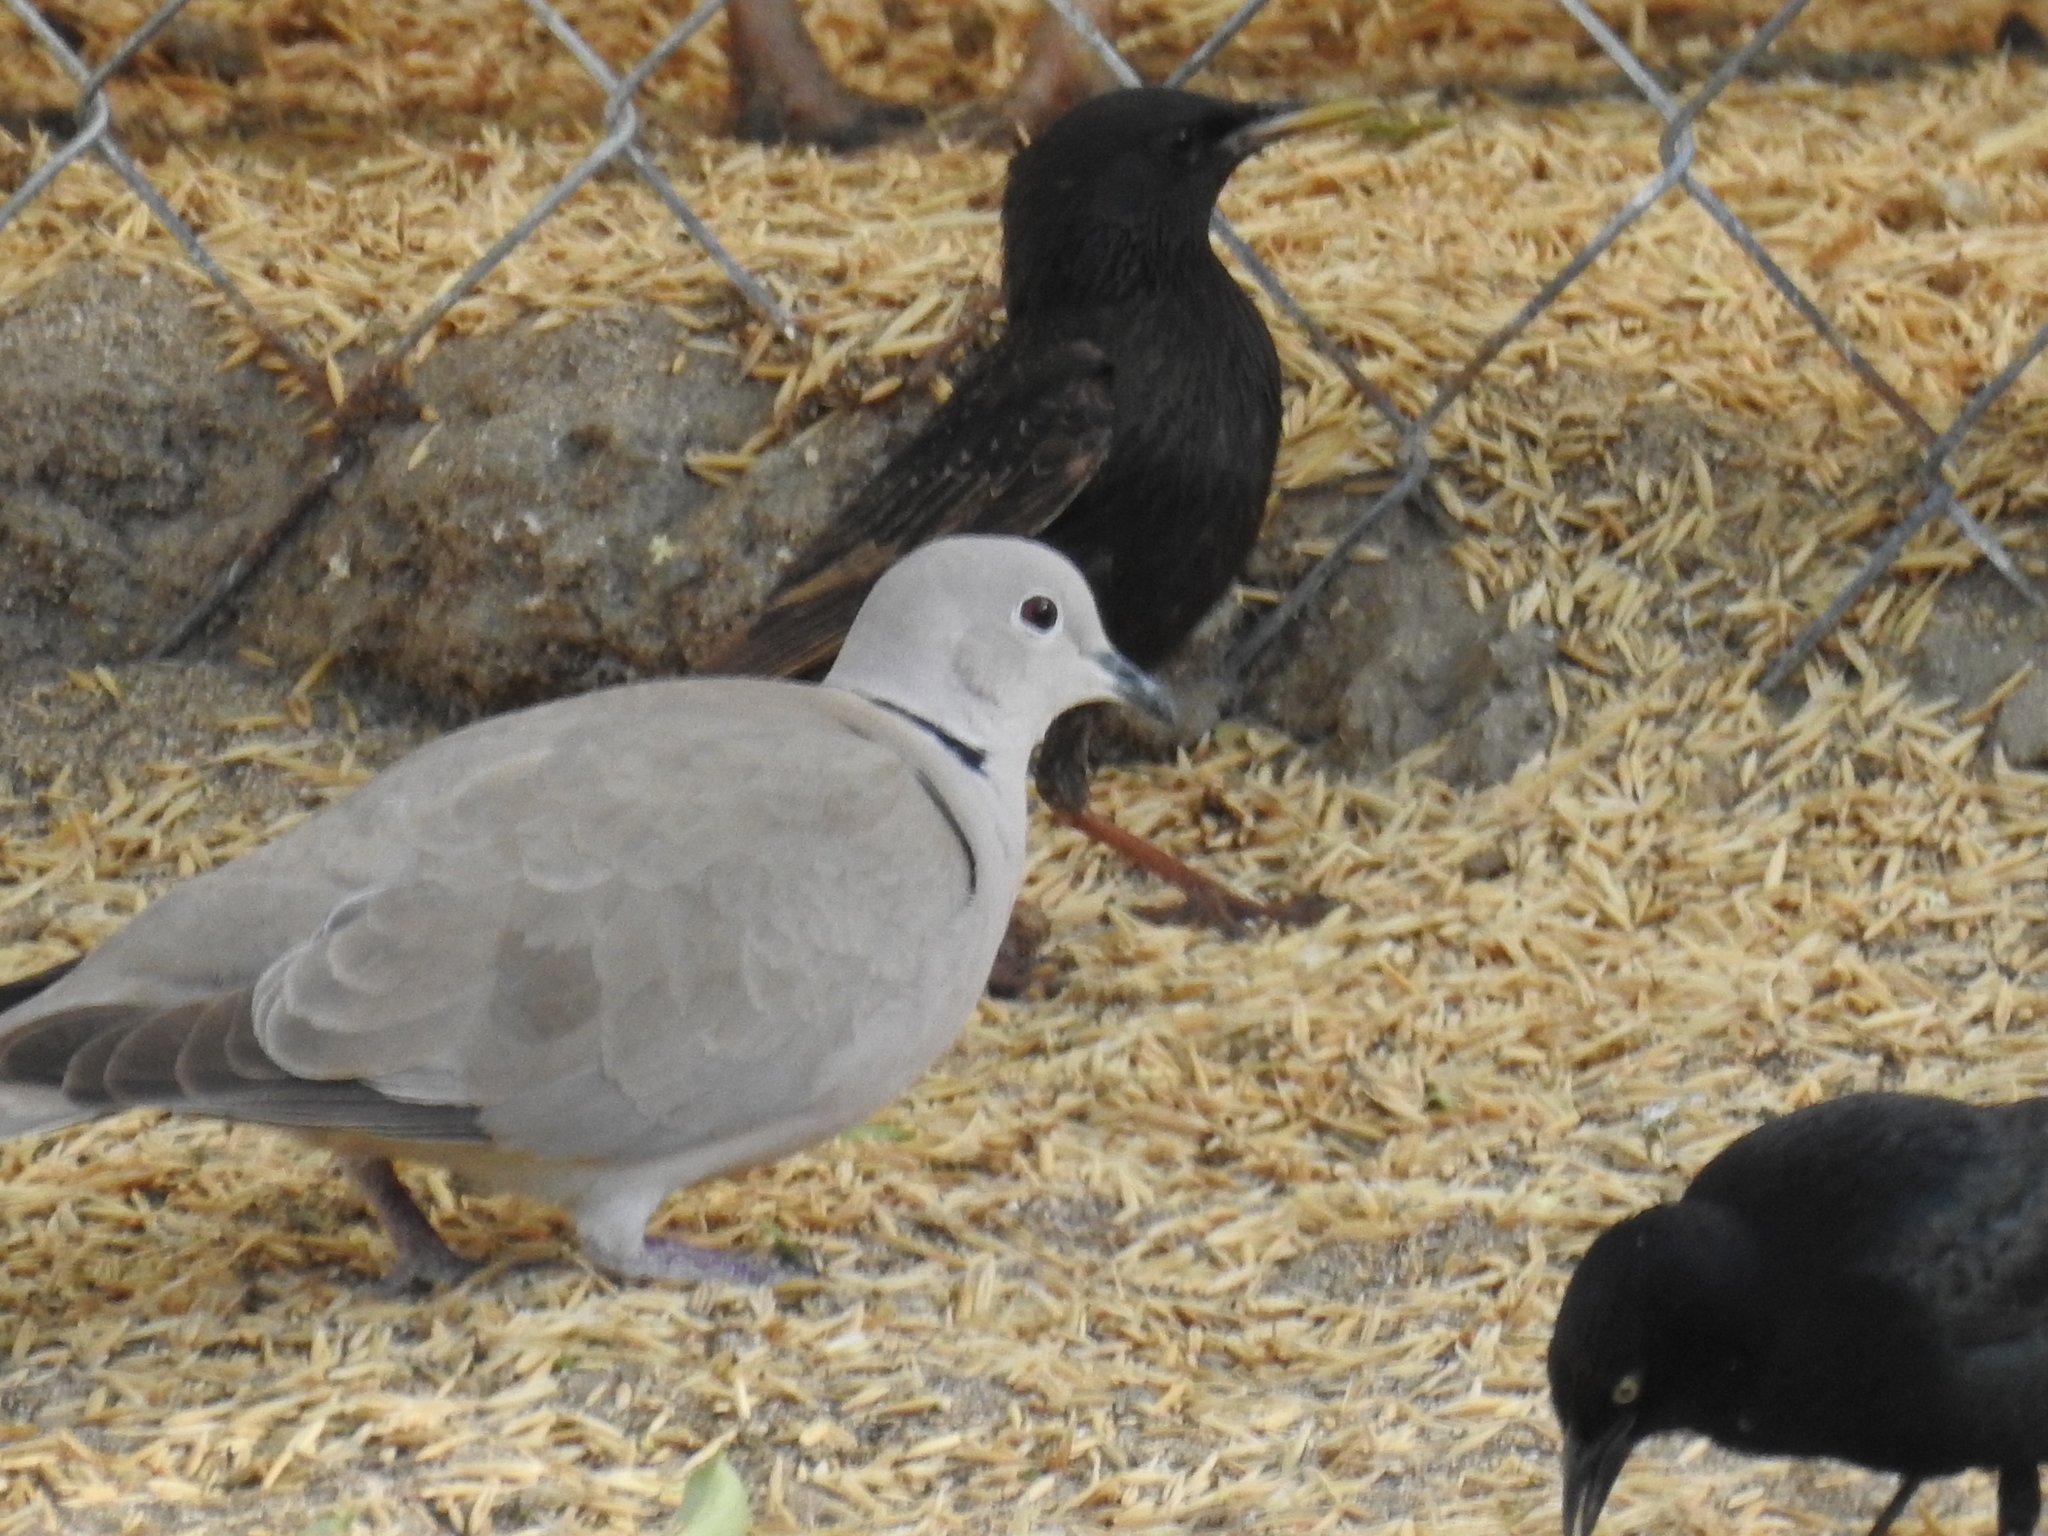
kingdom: Animalia
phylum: Chordata
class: Aves
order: Columbiformes
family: Columbidae
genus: Streptopelia
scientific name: Streptopelia decaocto
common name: Eurasian collared dove
